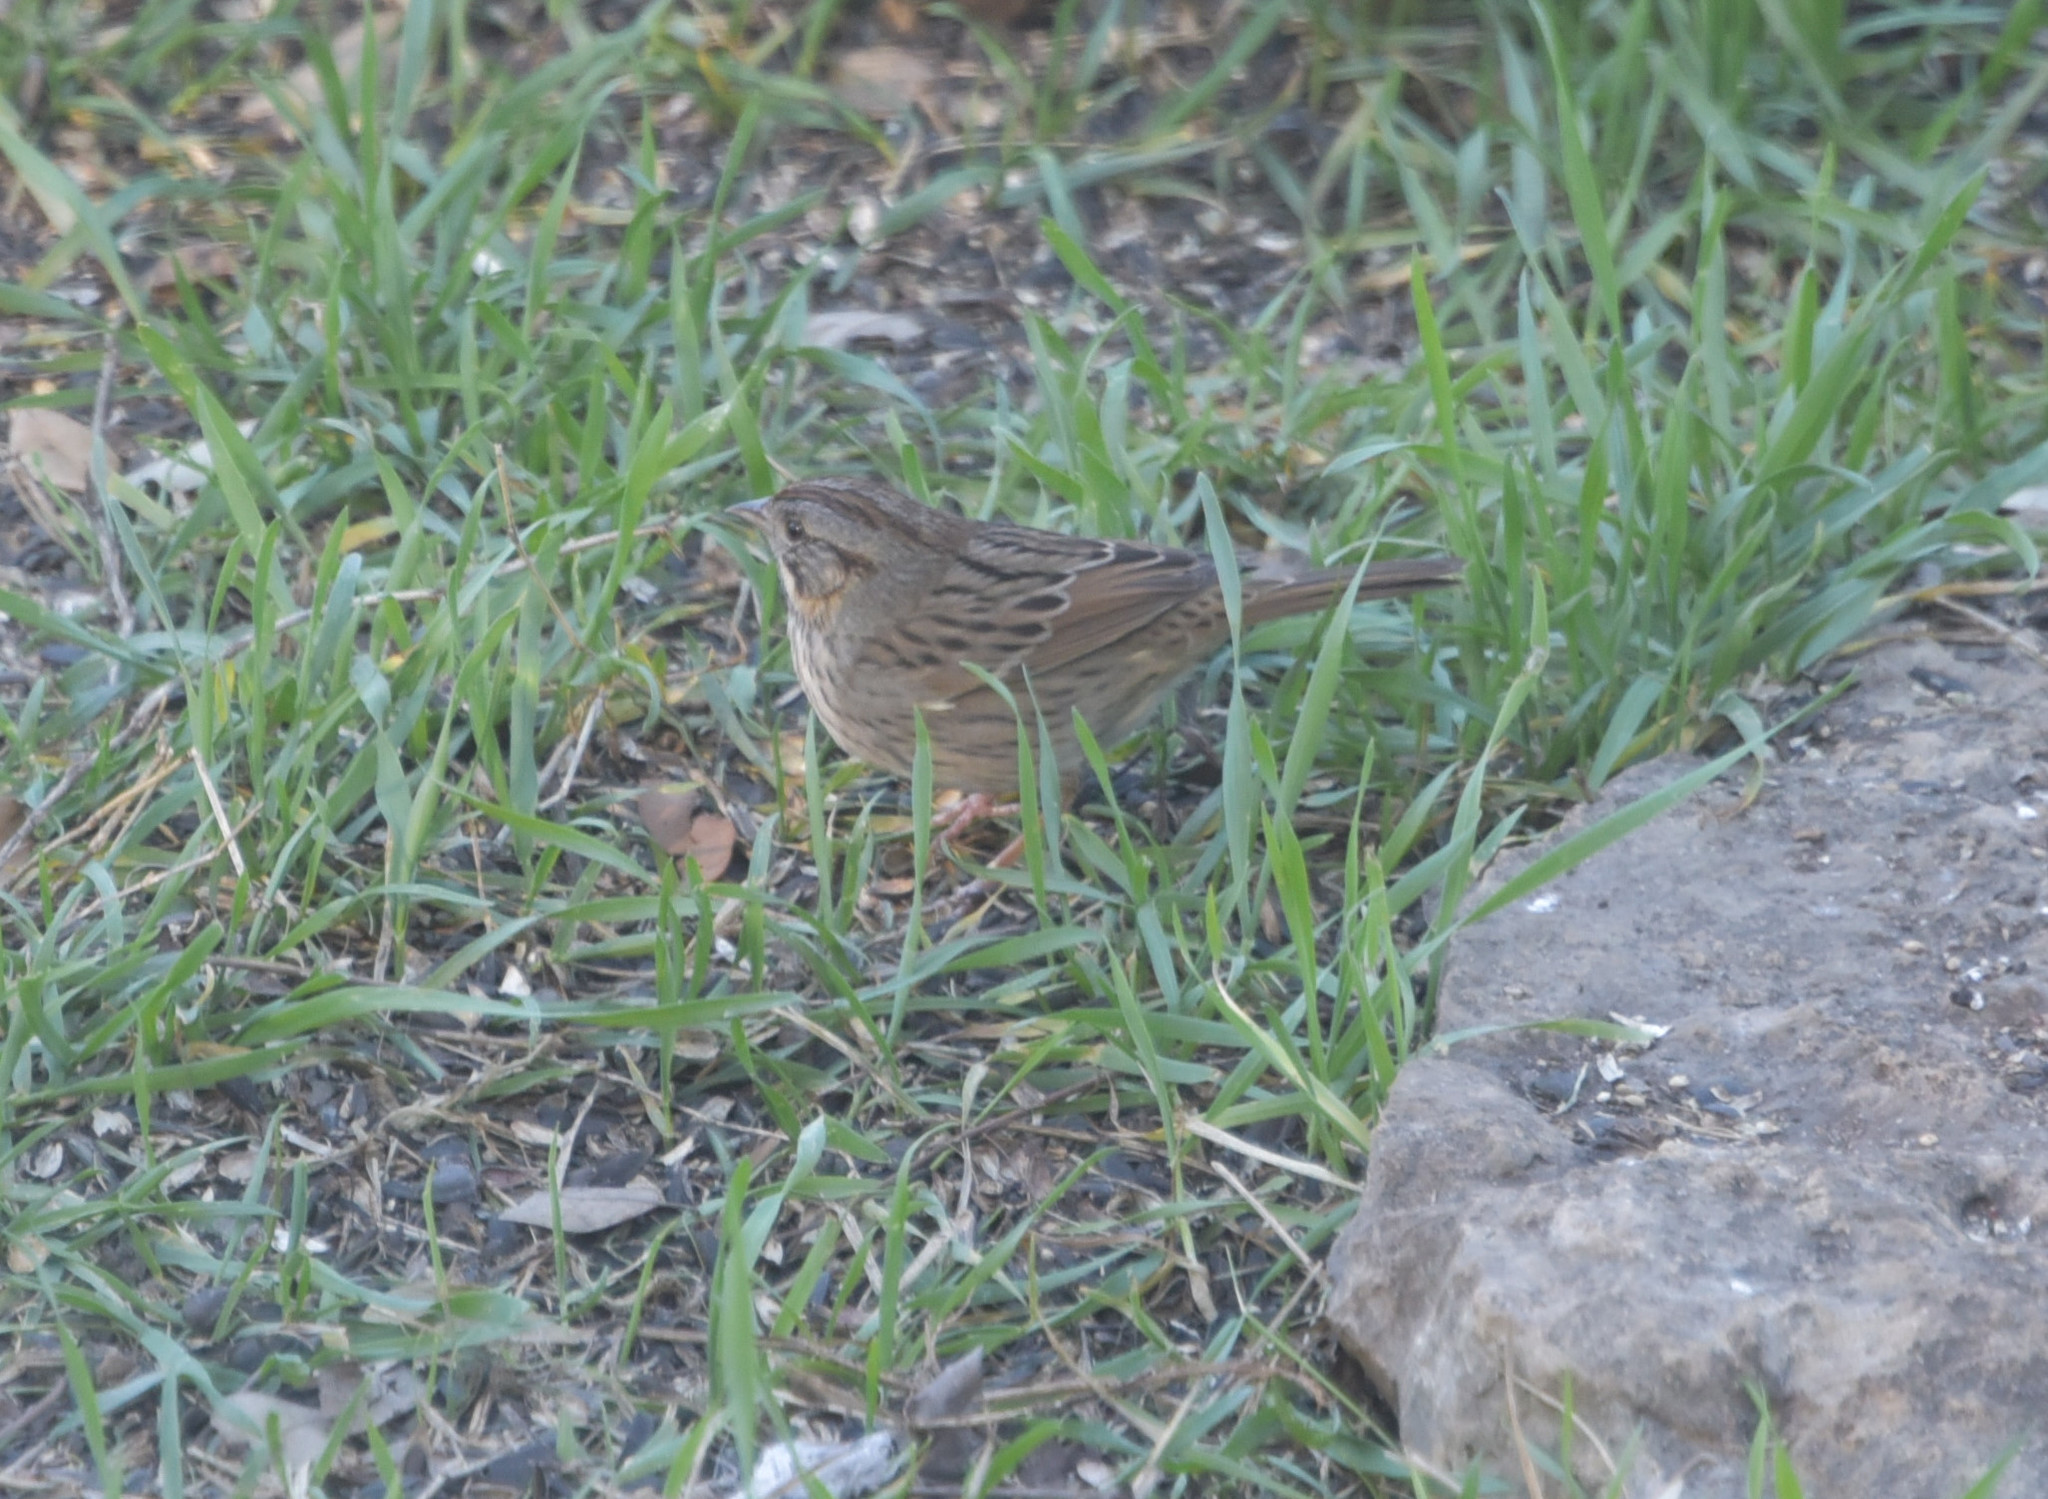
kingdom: Animalia
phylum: Chordata
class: Aves
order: Passeriformes
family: Passerellidae
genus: Melospiza
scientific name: Melospiza lincolnii
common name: Lincoln's sparrow
